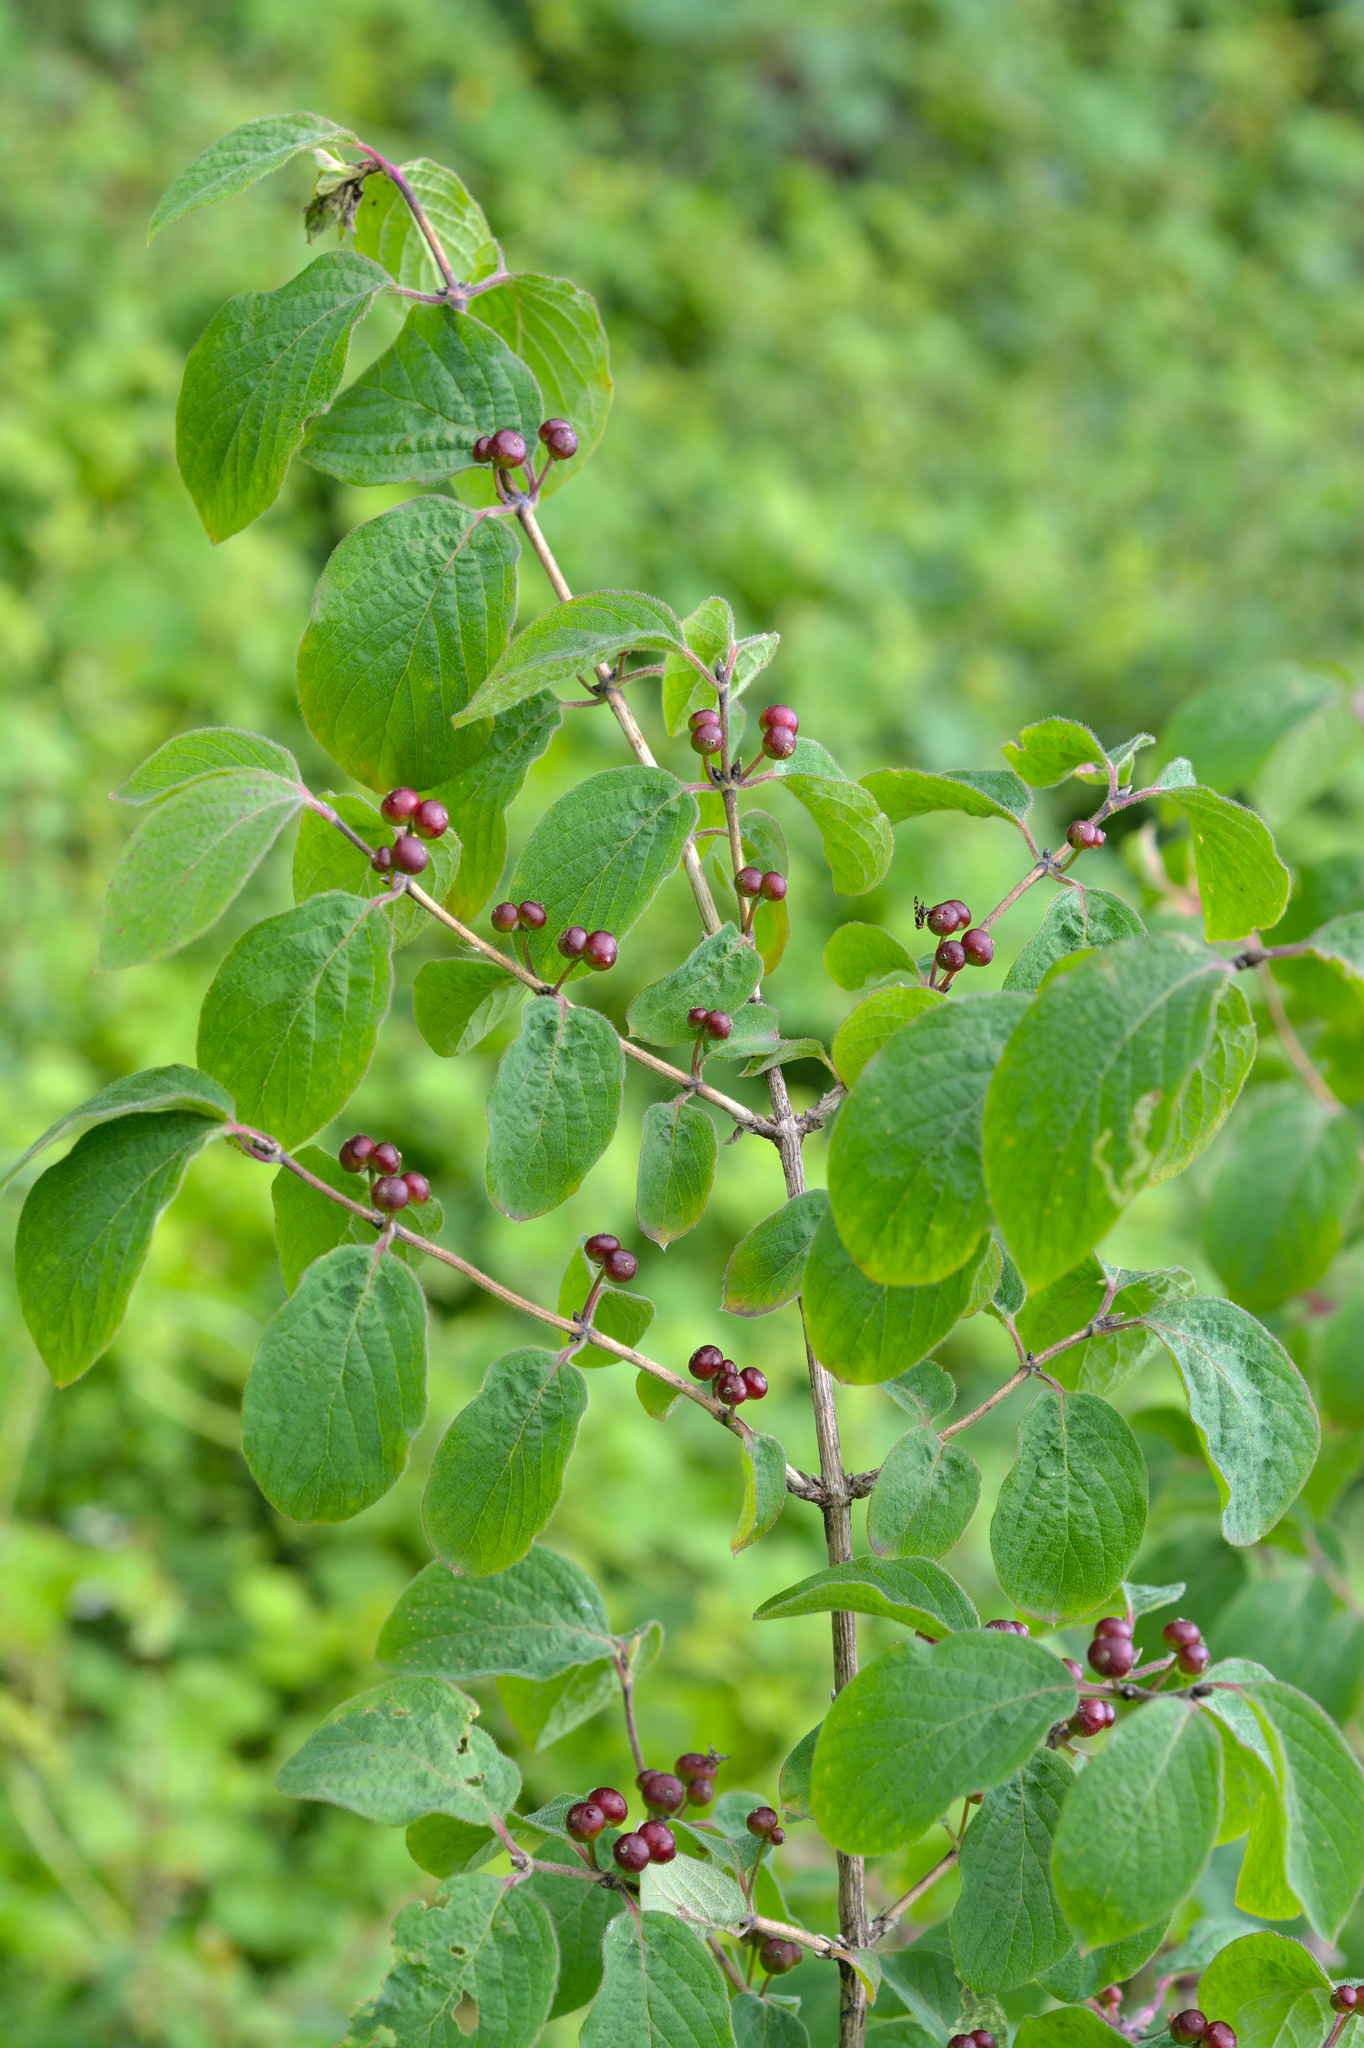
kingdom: Plantae
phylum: Tracheophyta
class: Magnoliopsida
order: Dipsacales
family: Caprifoliaceae
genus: Lonicera
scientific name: Lonicera xylosteum
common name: Fly honeysuckle
